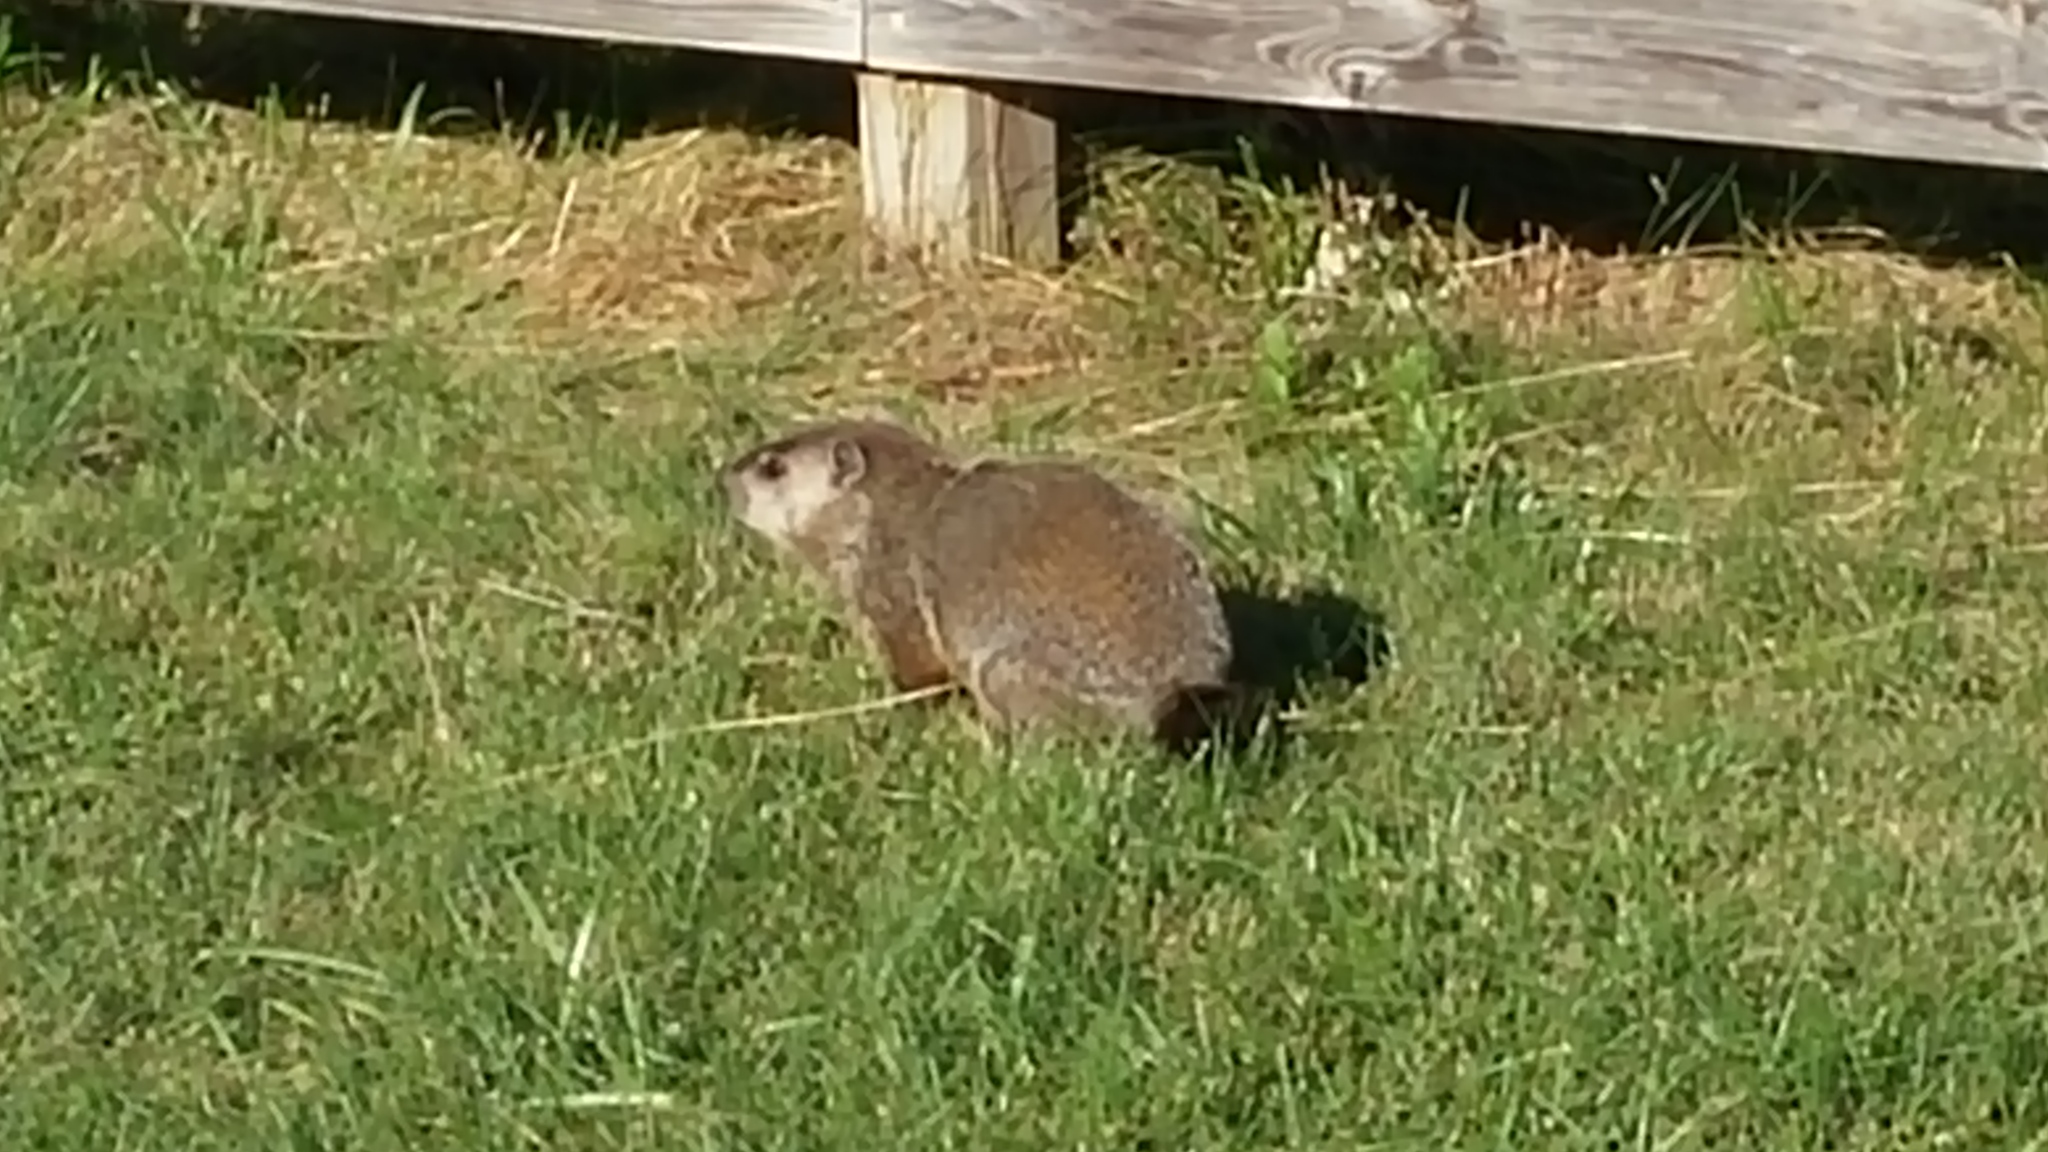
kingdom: Animalia
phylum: Chordata
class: Mammalia
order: Rodentia
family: Sciuridae
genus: Marmota
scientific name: Marmota monax
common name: Groundhog
